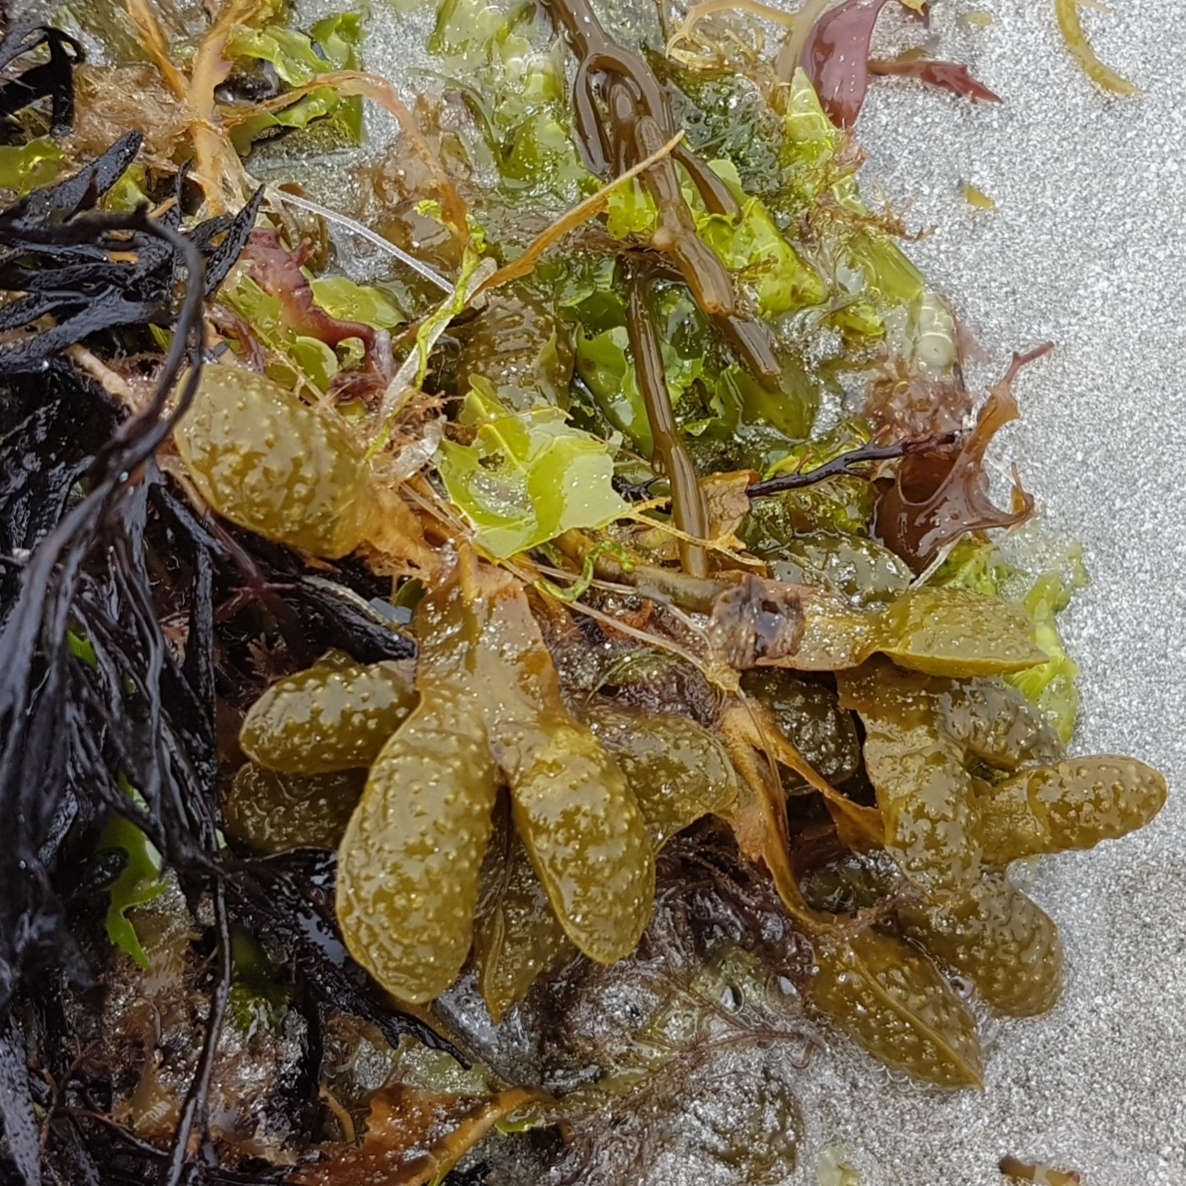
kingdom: Chromista
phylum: Ochrophyta
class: Phaeophyceae
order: Fucales
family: Fucaceae
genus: Fucus
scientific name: Fucus spiralis
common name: Spiral wrack
